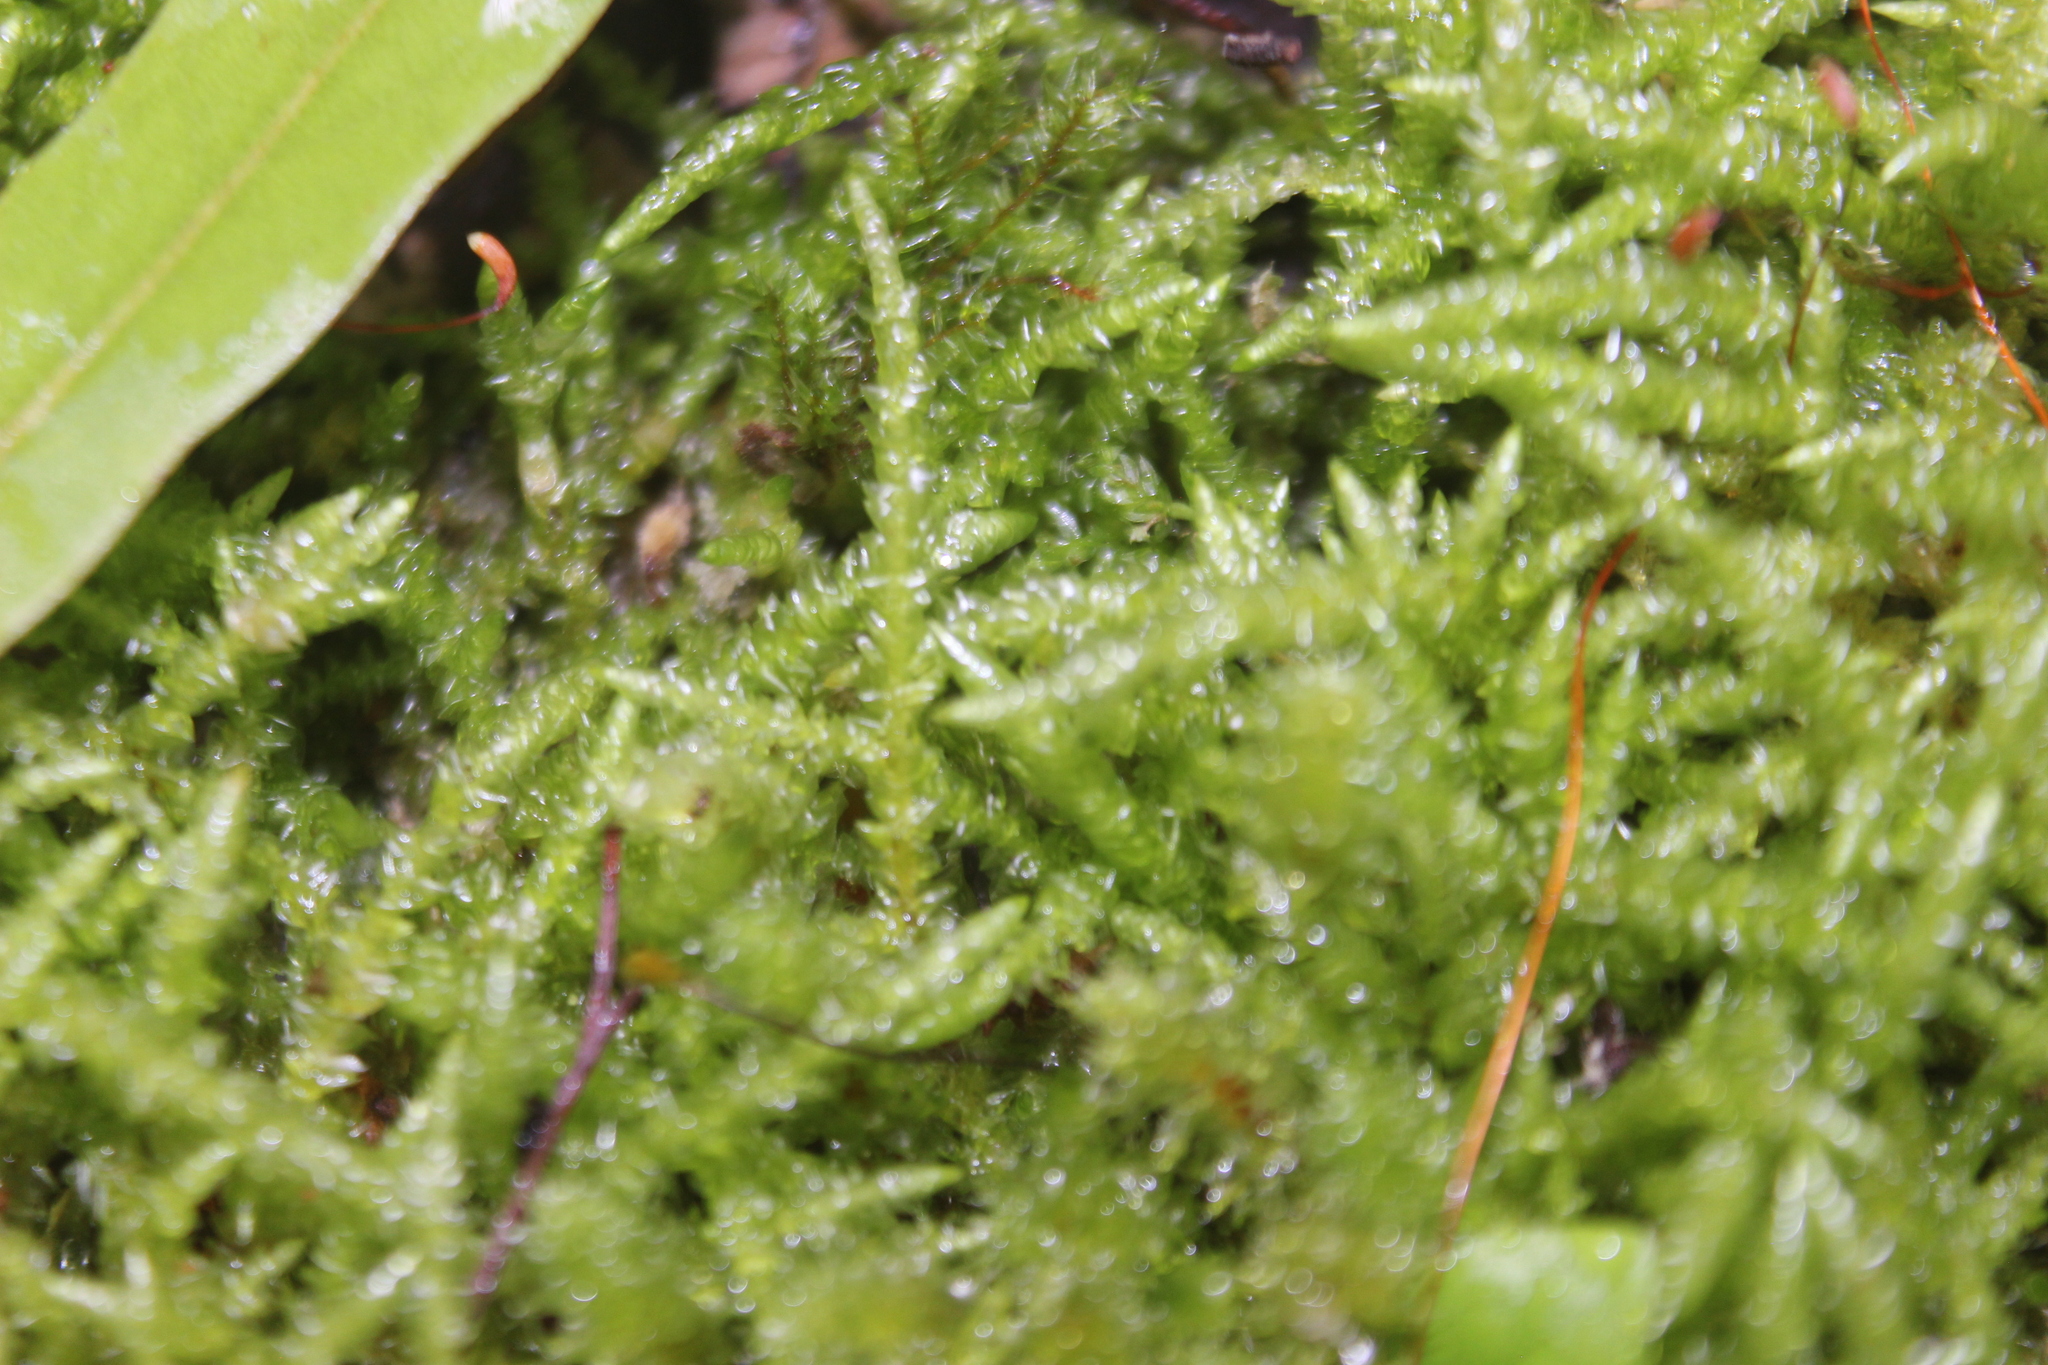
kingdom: Plantae
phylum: Bryophyta
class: Bryopsida
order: Hypnales
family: Acrocladiaceae
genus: Acrocladium
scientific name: Acrocladium chlamydophyllum
